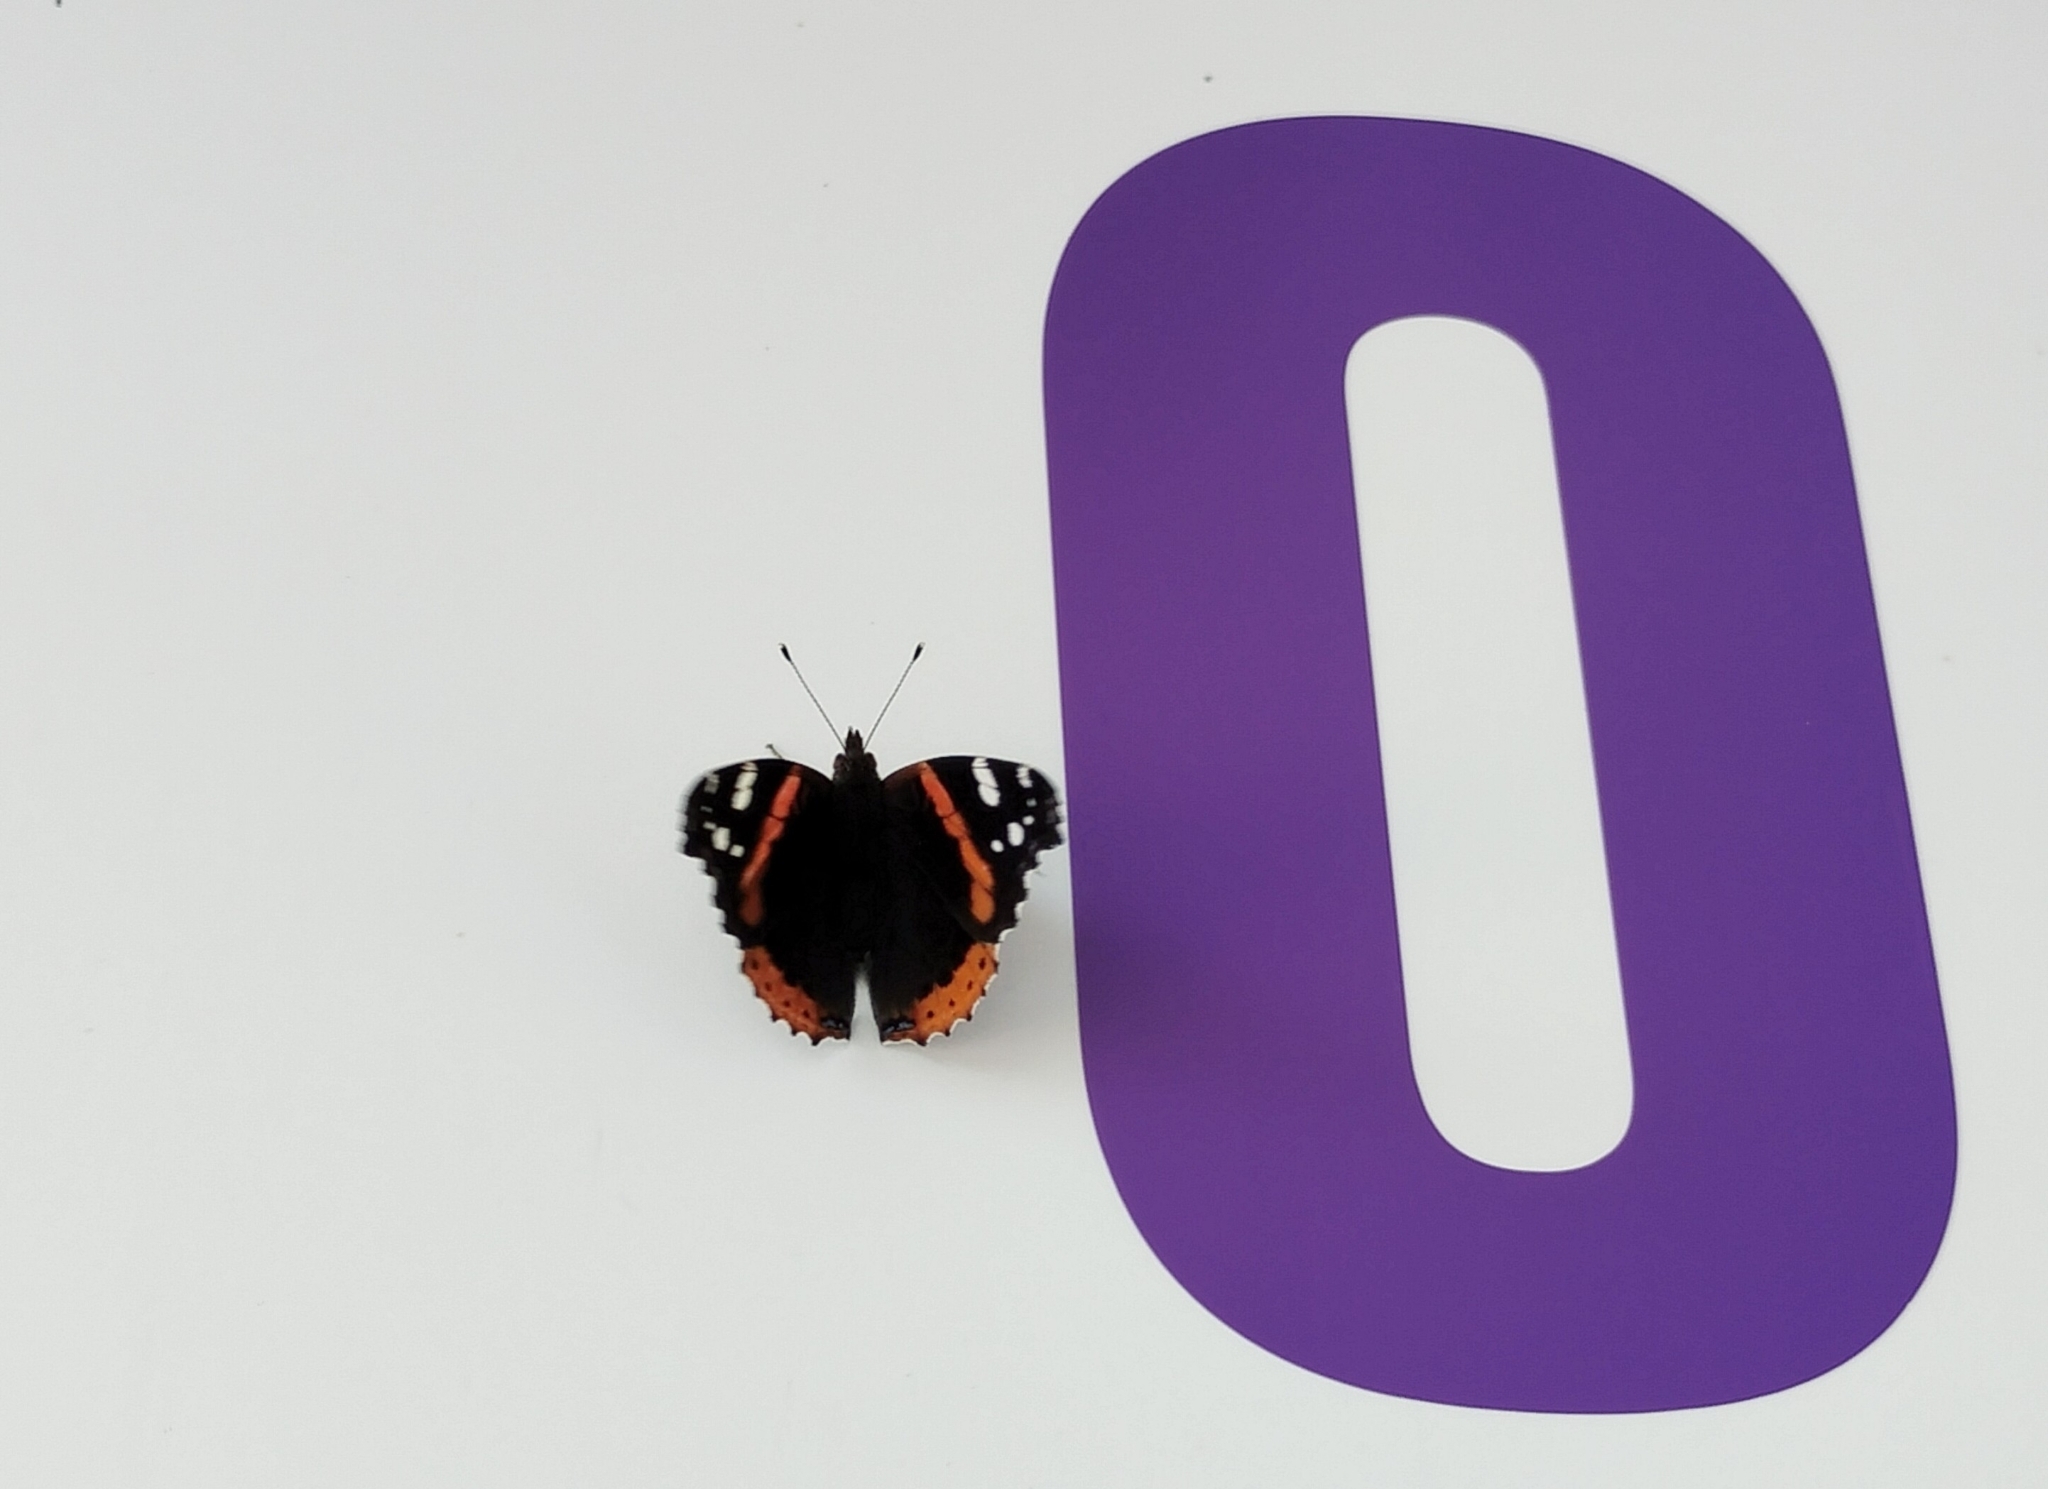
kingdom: Animalia
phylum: Arthropoda
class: Insecta
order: Lepidoptera
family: Nymphalidae
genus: Vanessa
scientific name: Vanessa atalanta
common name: Red admiral
